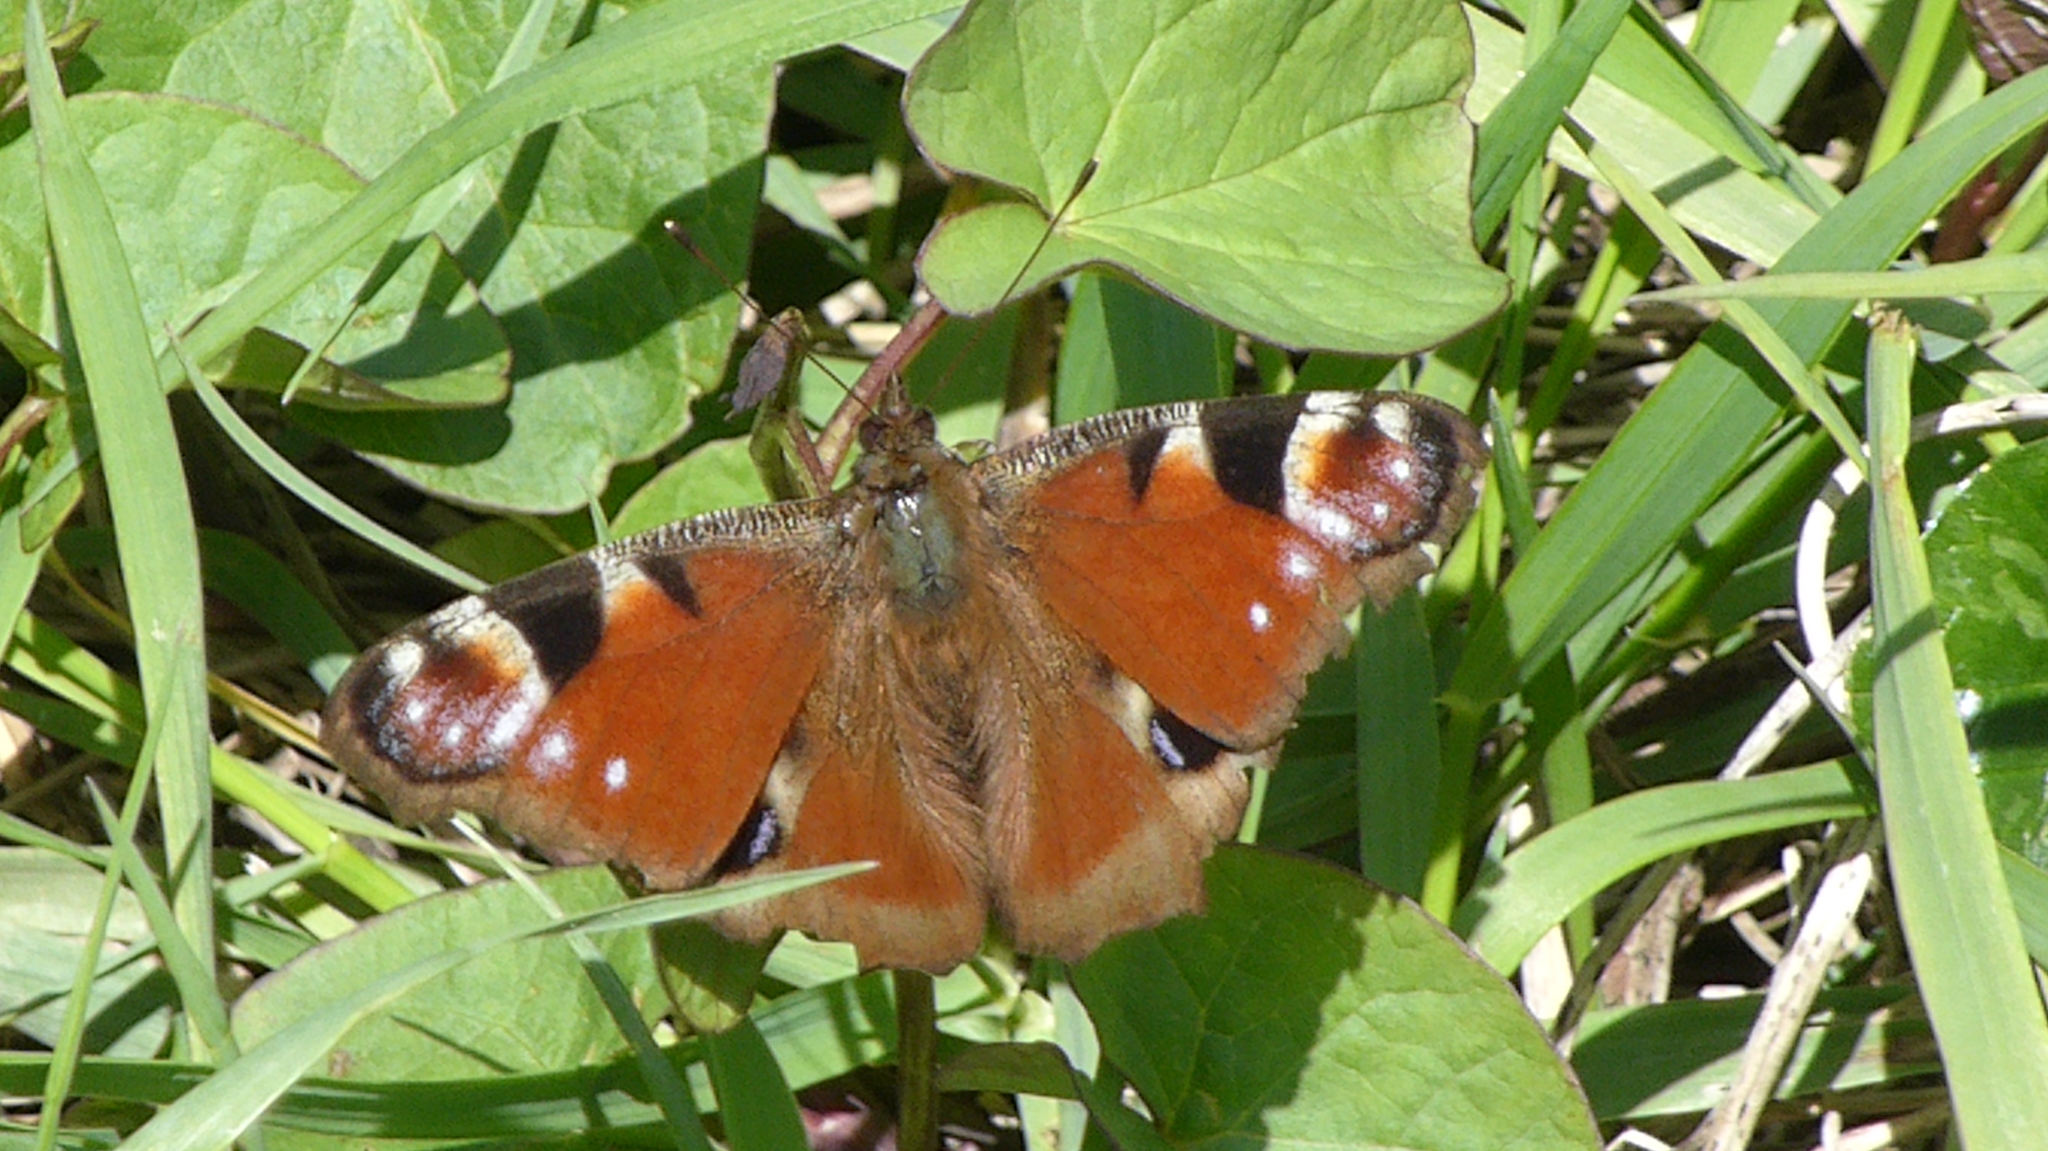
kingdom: Animalia
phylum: Arthropoda
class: Insecta
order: Lepidoptera
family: Nymphalidae
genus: Aglais
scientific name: Aglais io
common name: Peacock
